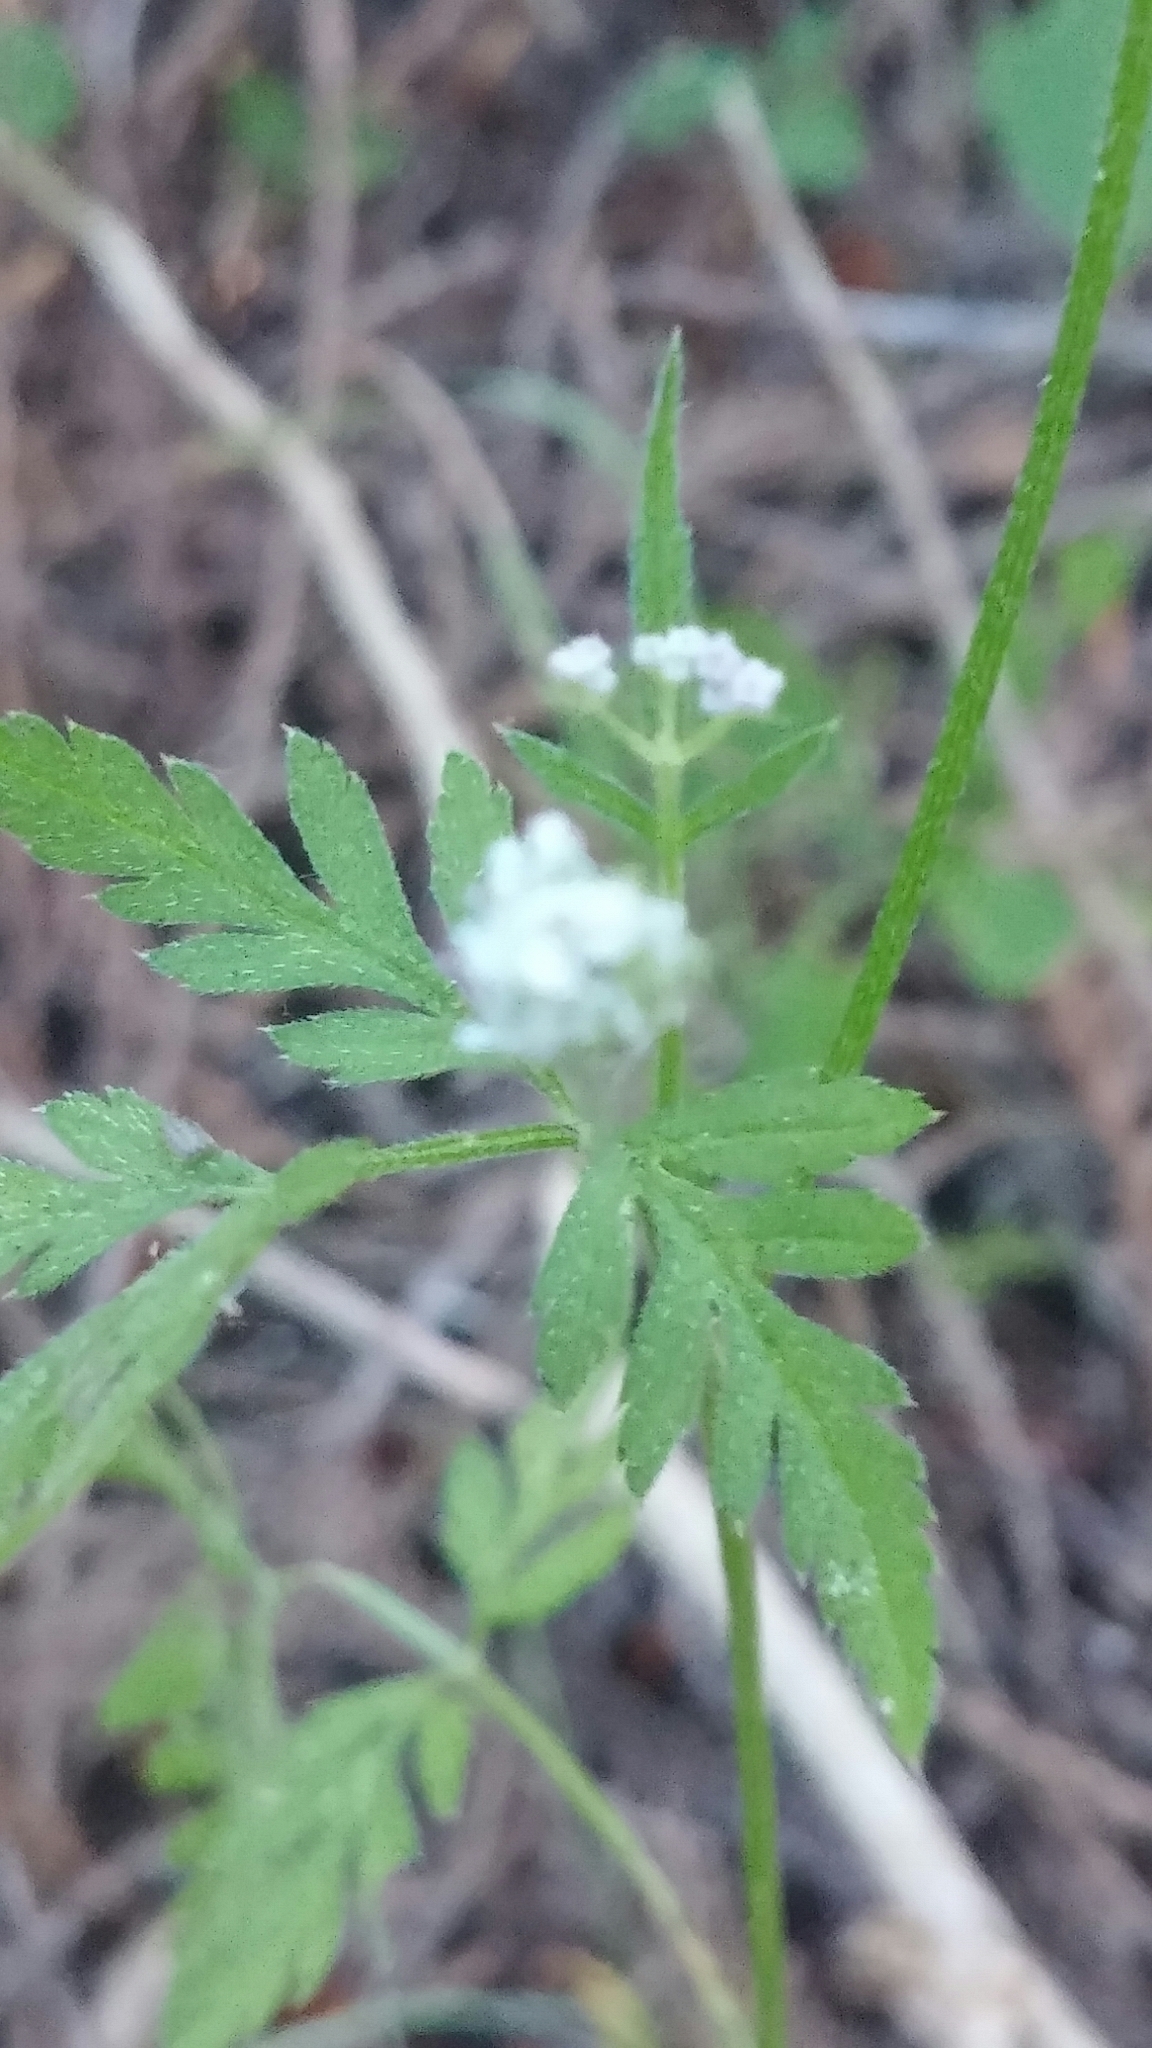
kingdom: Plantae
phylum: Tracheophyta
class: Magnoliopsida
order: Apiales
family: Apiaceae
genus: Oenanthe
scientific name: Oenanthe sarmentosa
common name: American water-parsley
